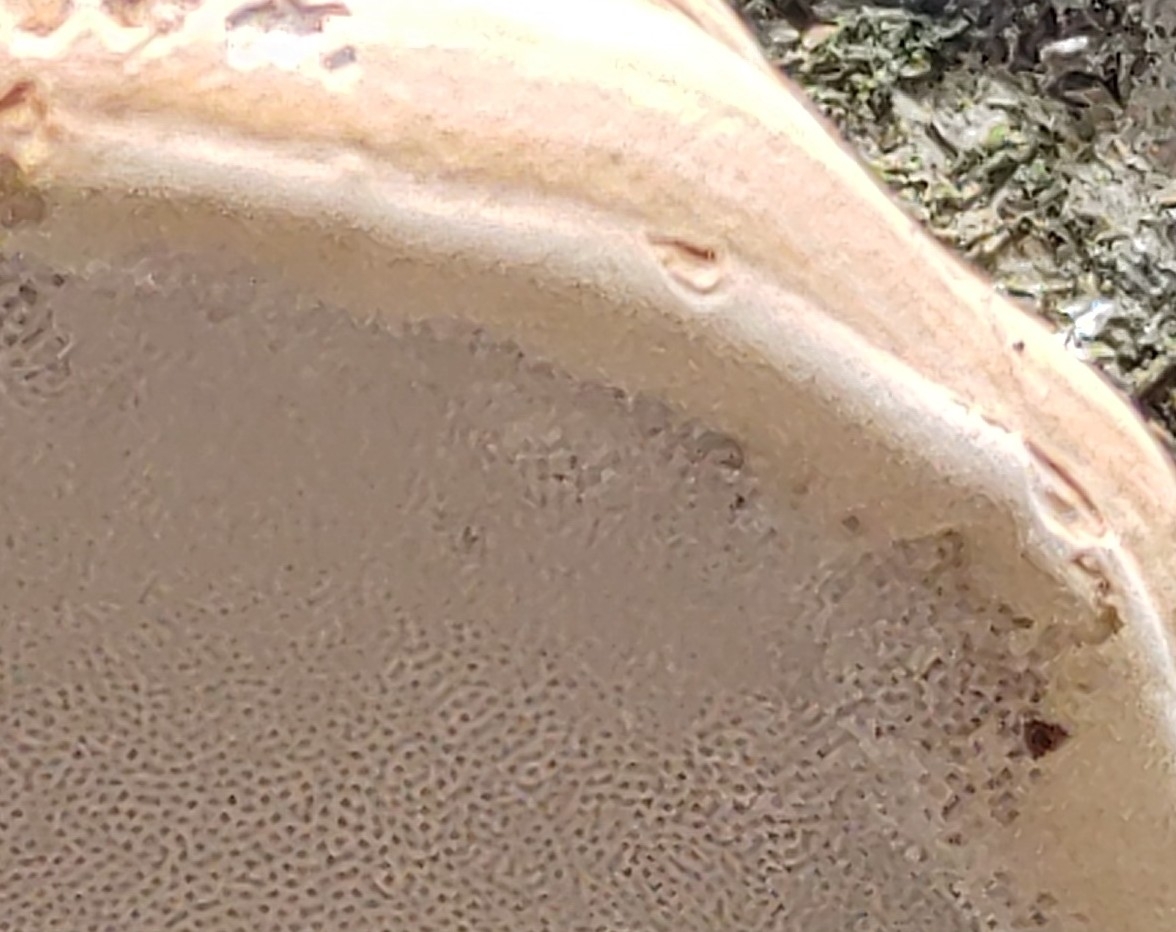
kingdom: Fungi
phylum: Basidiomycota
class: Agaricomycetes
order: Polyporales
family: Polyporaceae
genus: Fomes
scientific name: Fomes fomentarius
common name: Hoof fungus
